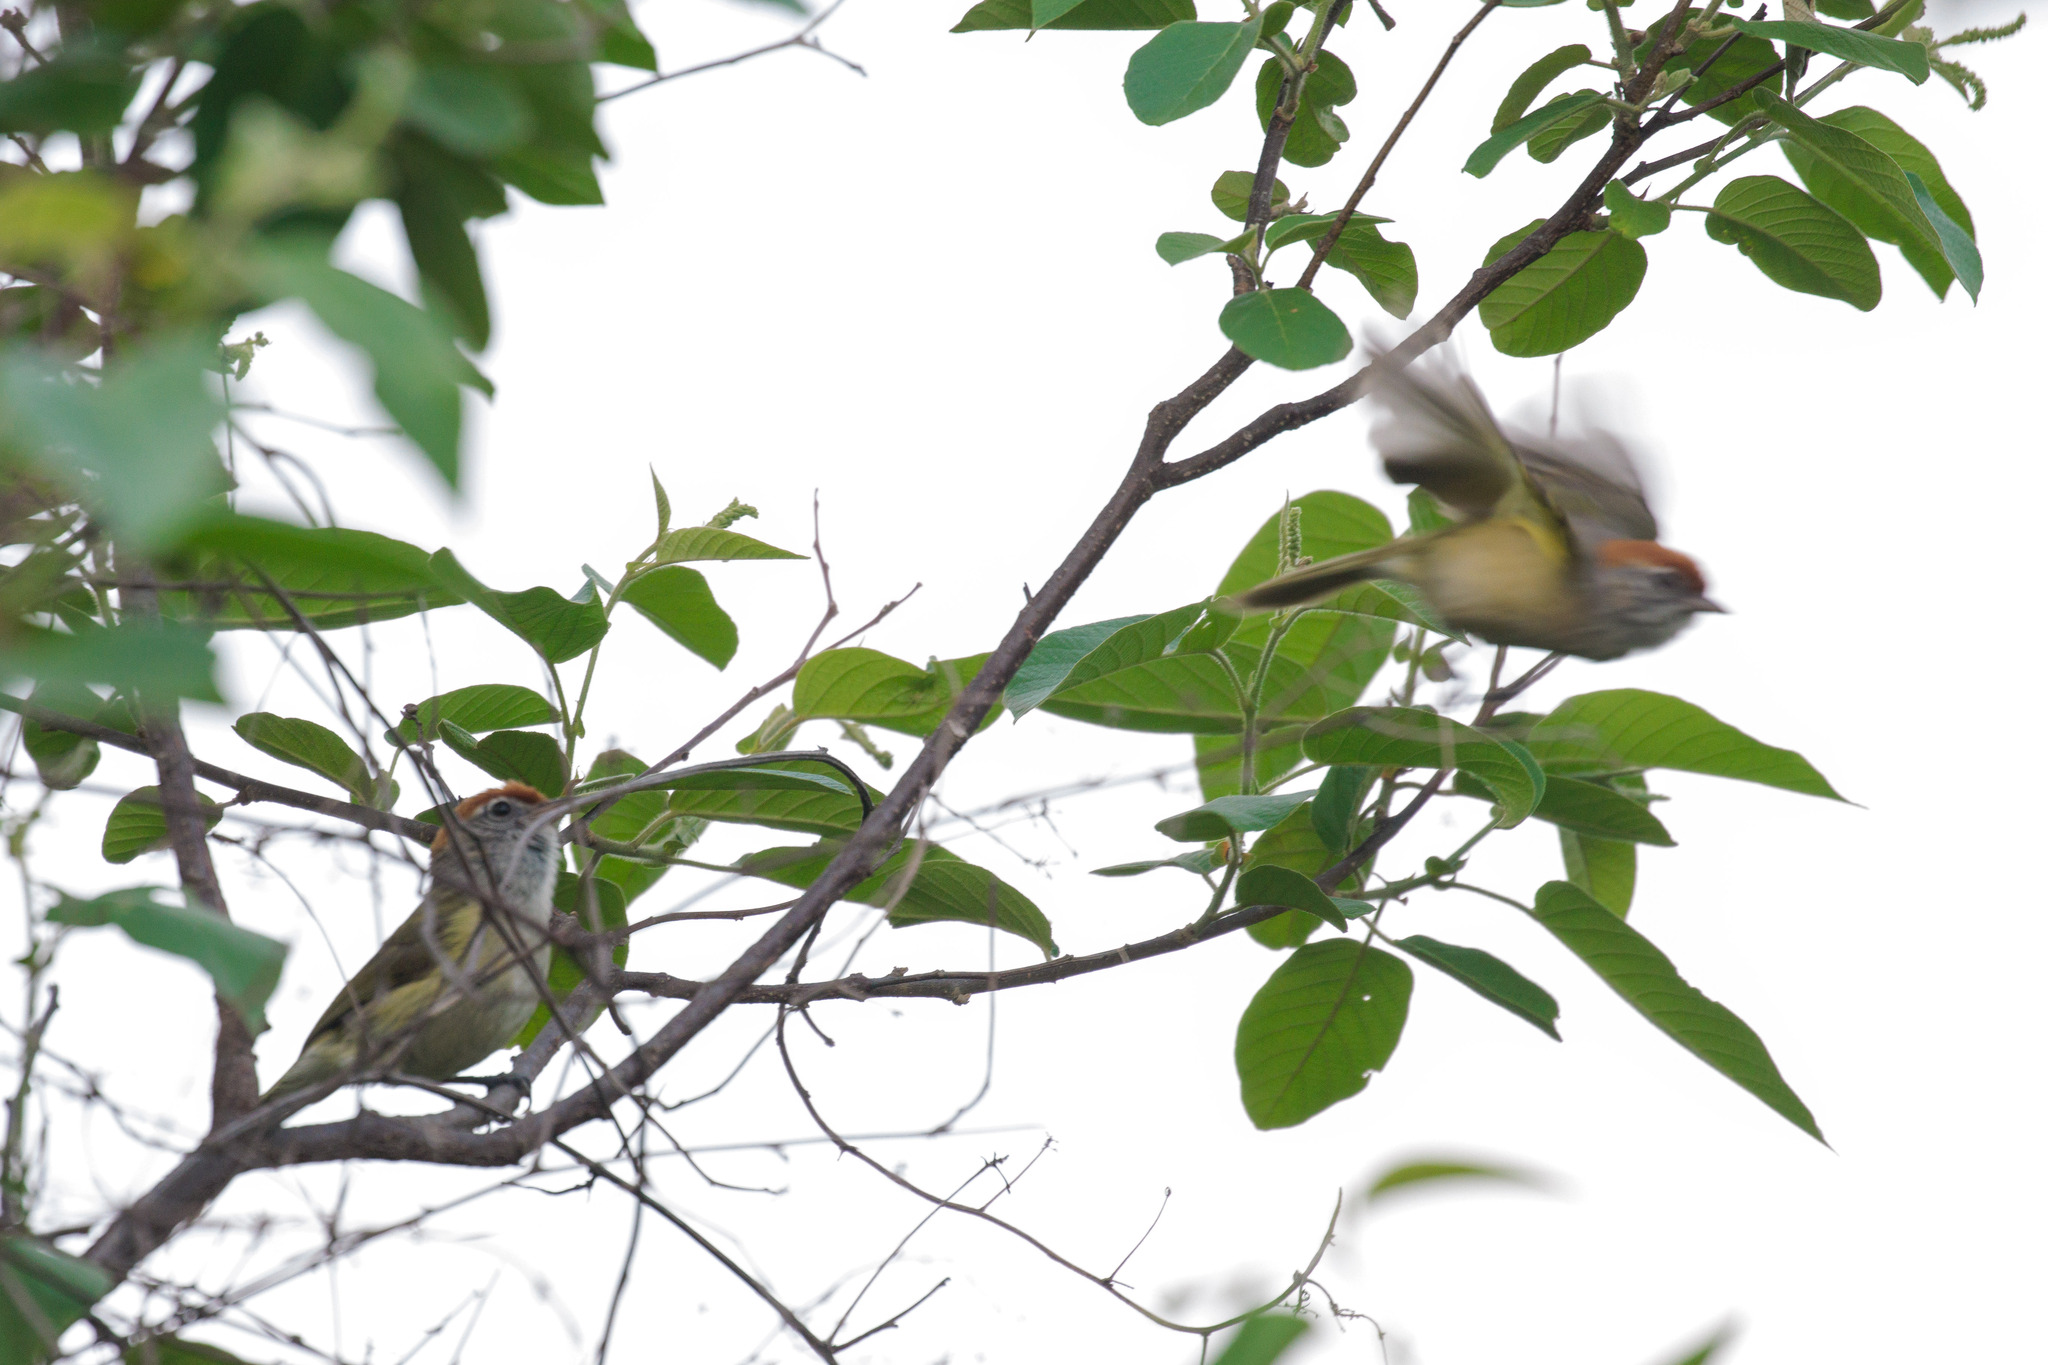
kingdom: Animalia
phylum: Chordata
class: Aves
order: Passeriformes
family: Vireonidae
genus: Hylophilus
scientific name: Hylophilus amaurocephalus
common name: Grey-eyed greenlet
